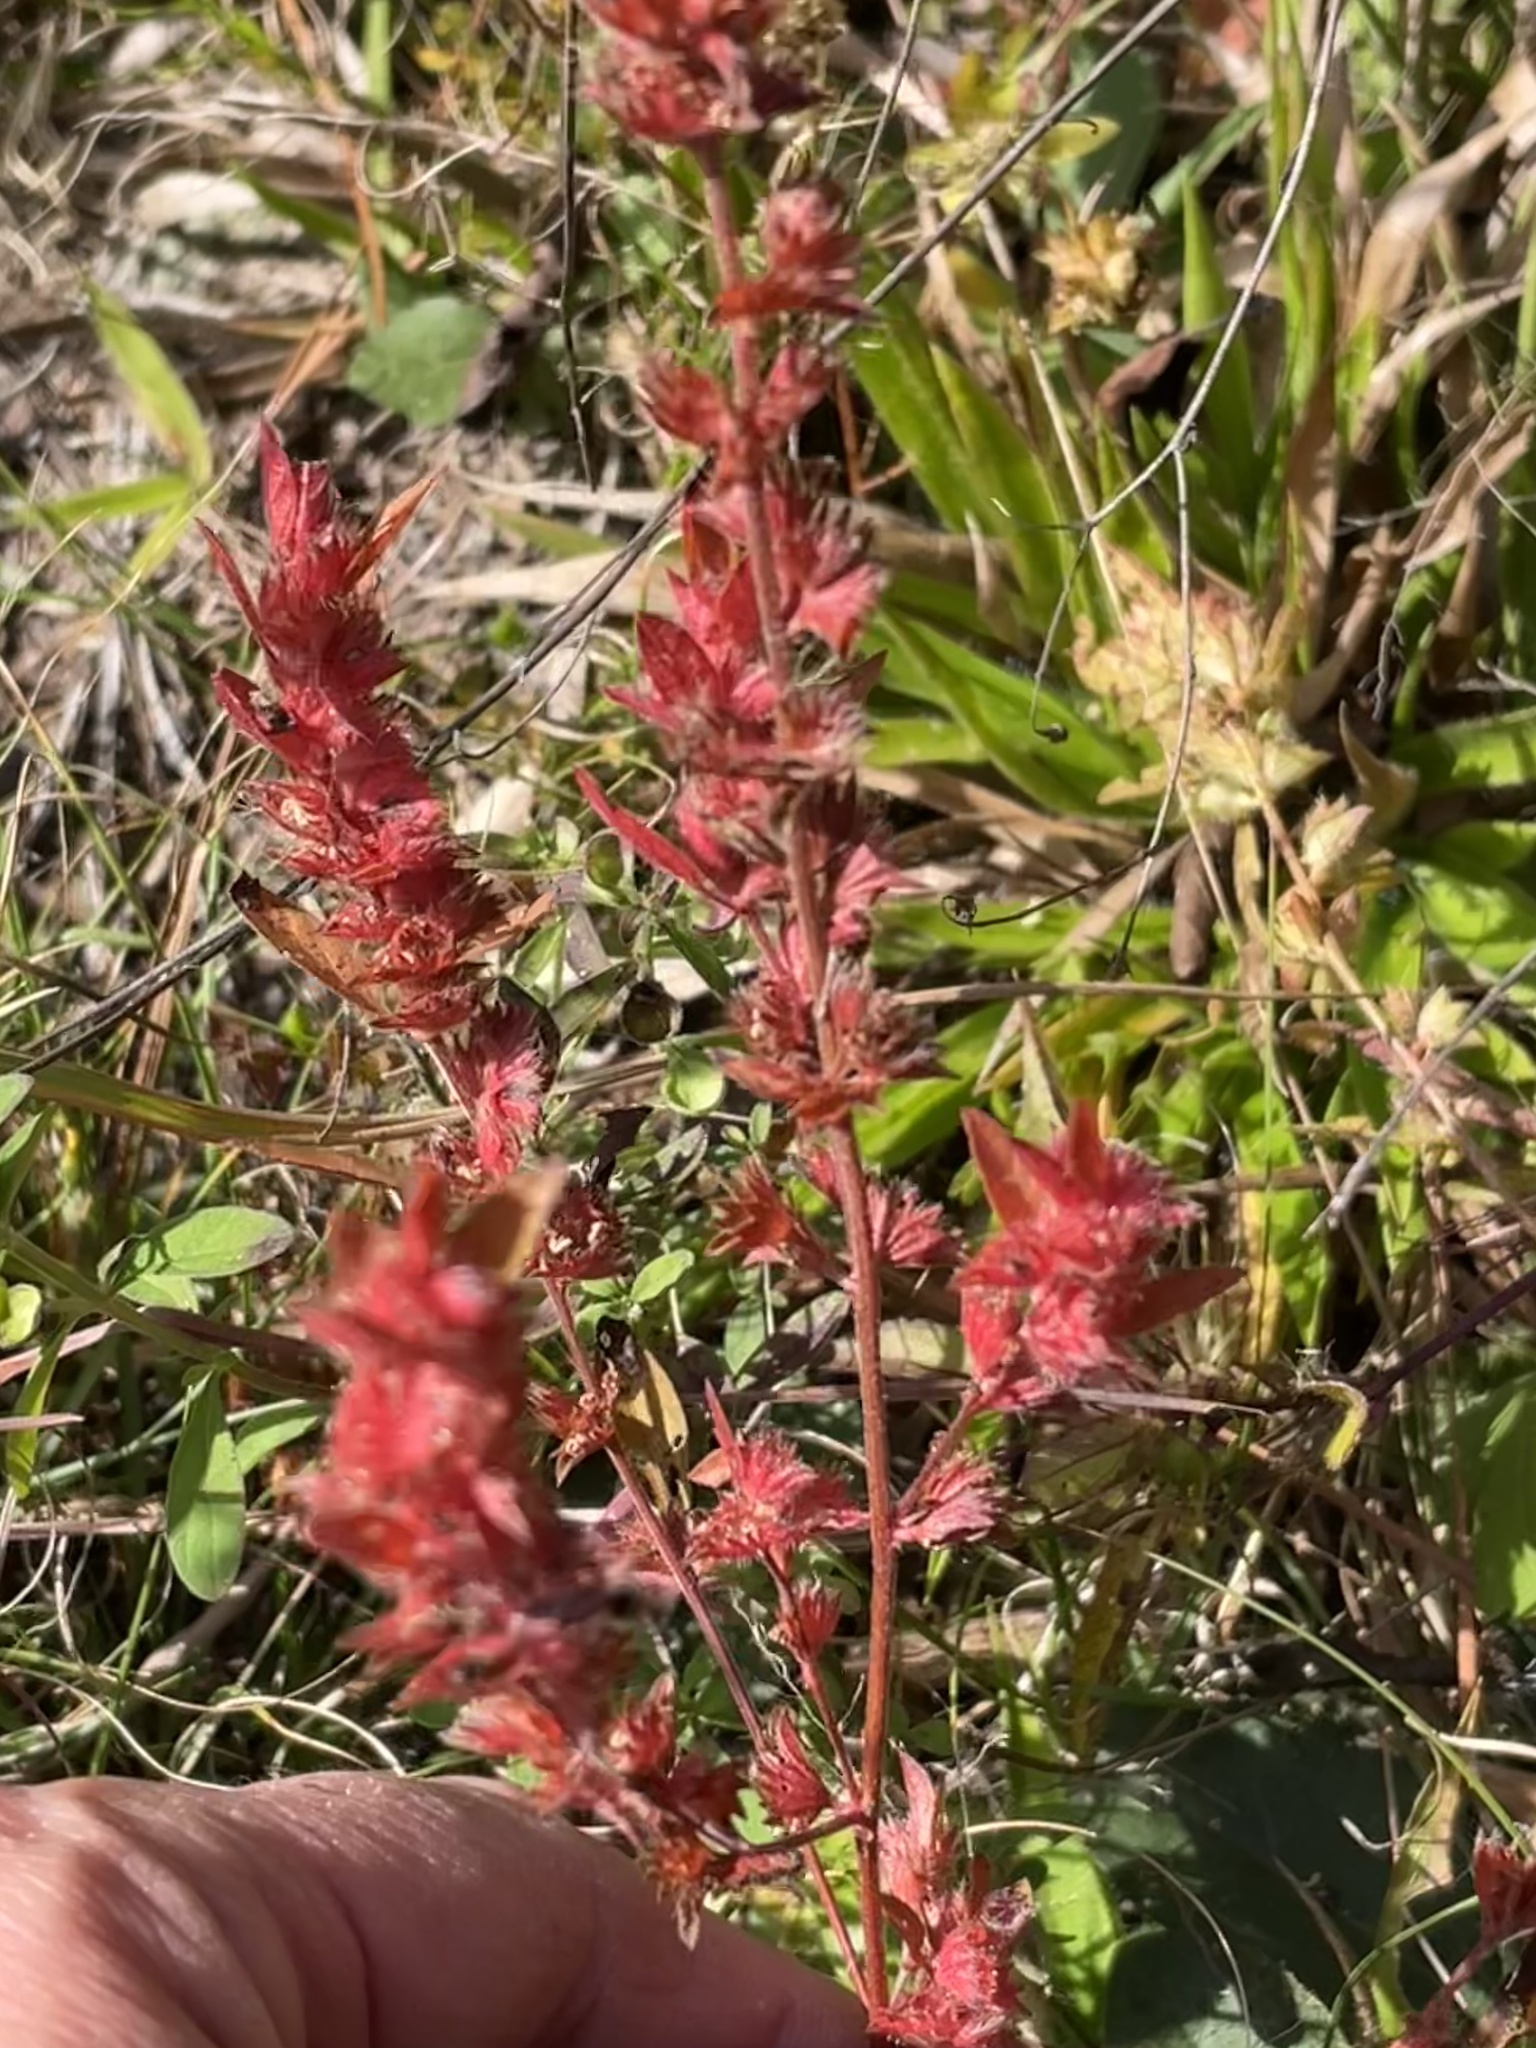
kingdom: Plantae
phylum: Tracheophyta
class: Magnoliopsida
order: Malpighiales
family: Euphorbiaceae
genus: Acalypha
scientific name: Acalypha gracilens
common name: Slender three-seeded mercury
